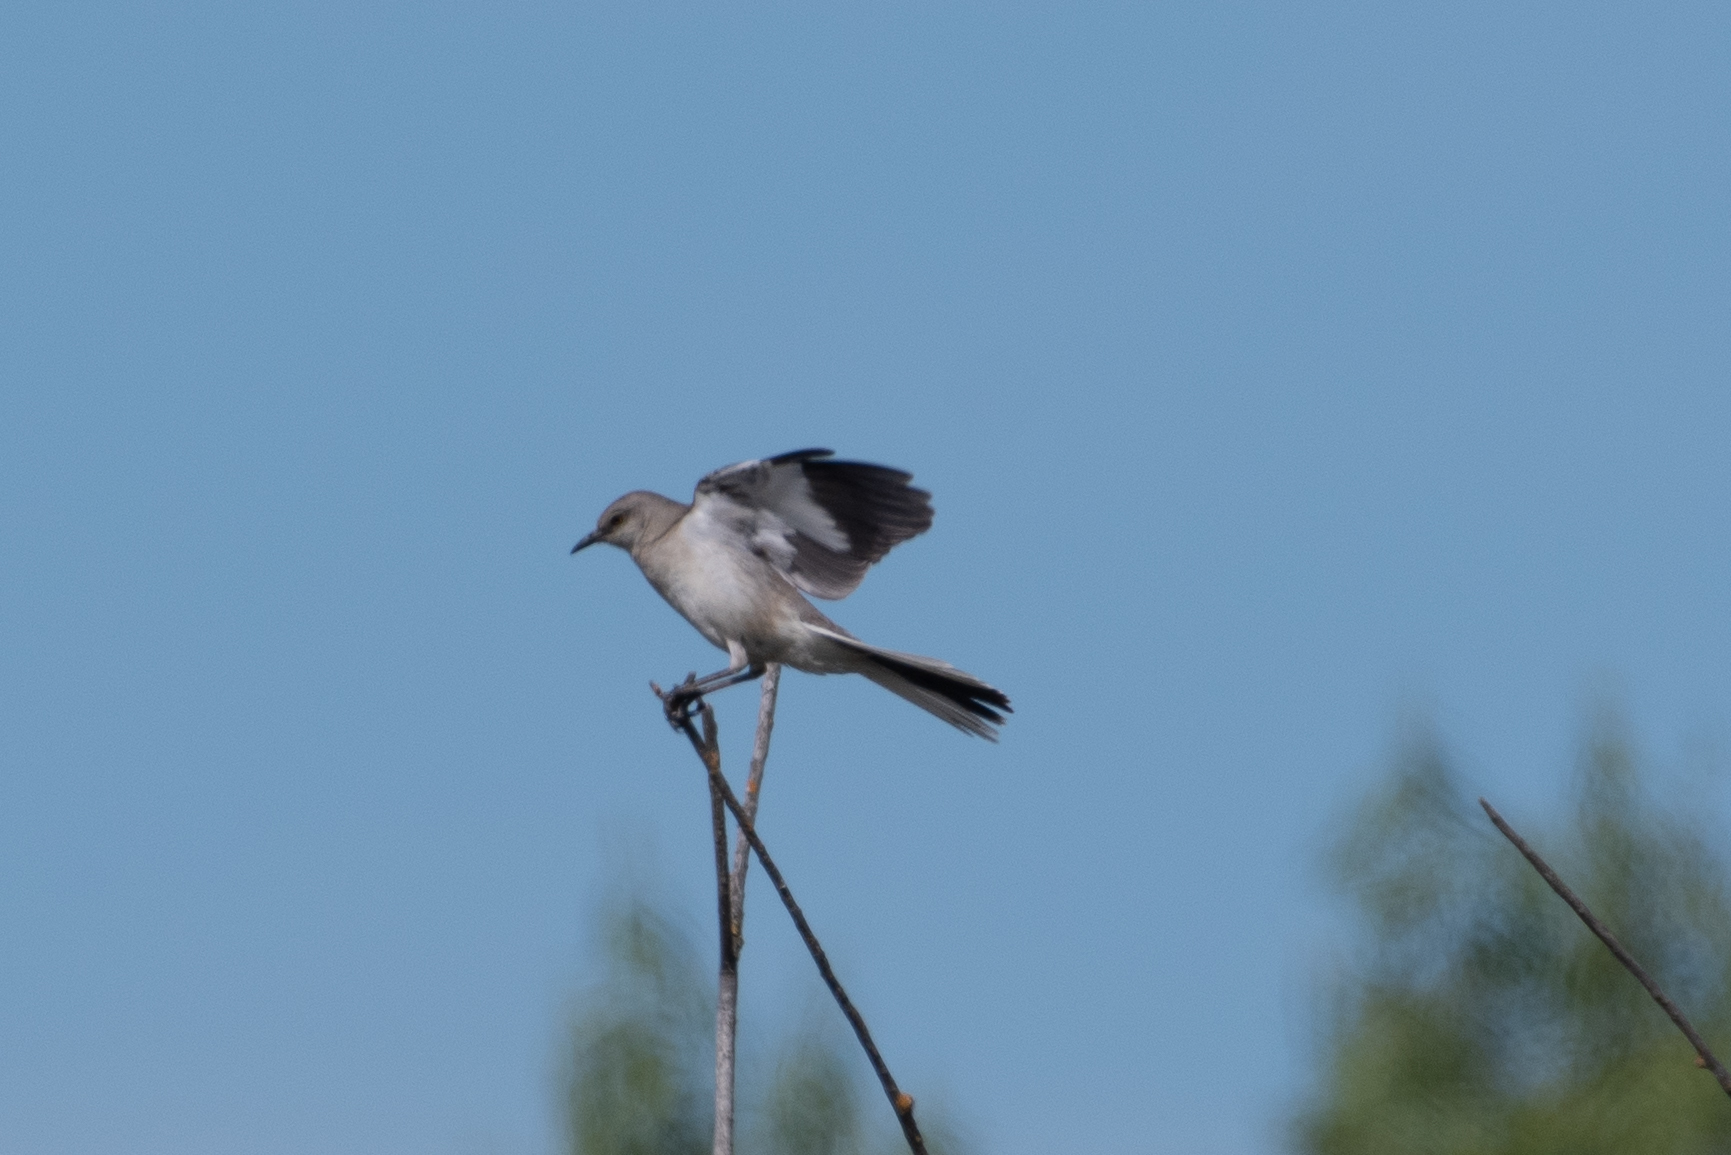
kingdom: Animalia
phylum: Chordata
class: Aves
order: Passeriformes
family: Mimidae
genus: Mimus
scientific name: Mimus polyglottos
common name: Northern mockingbird
